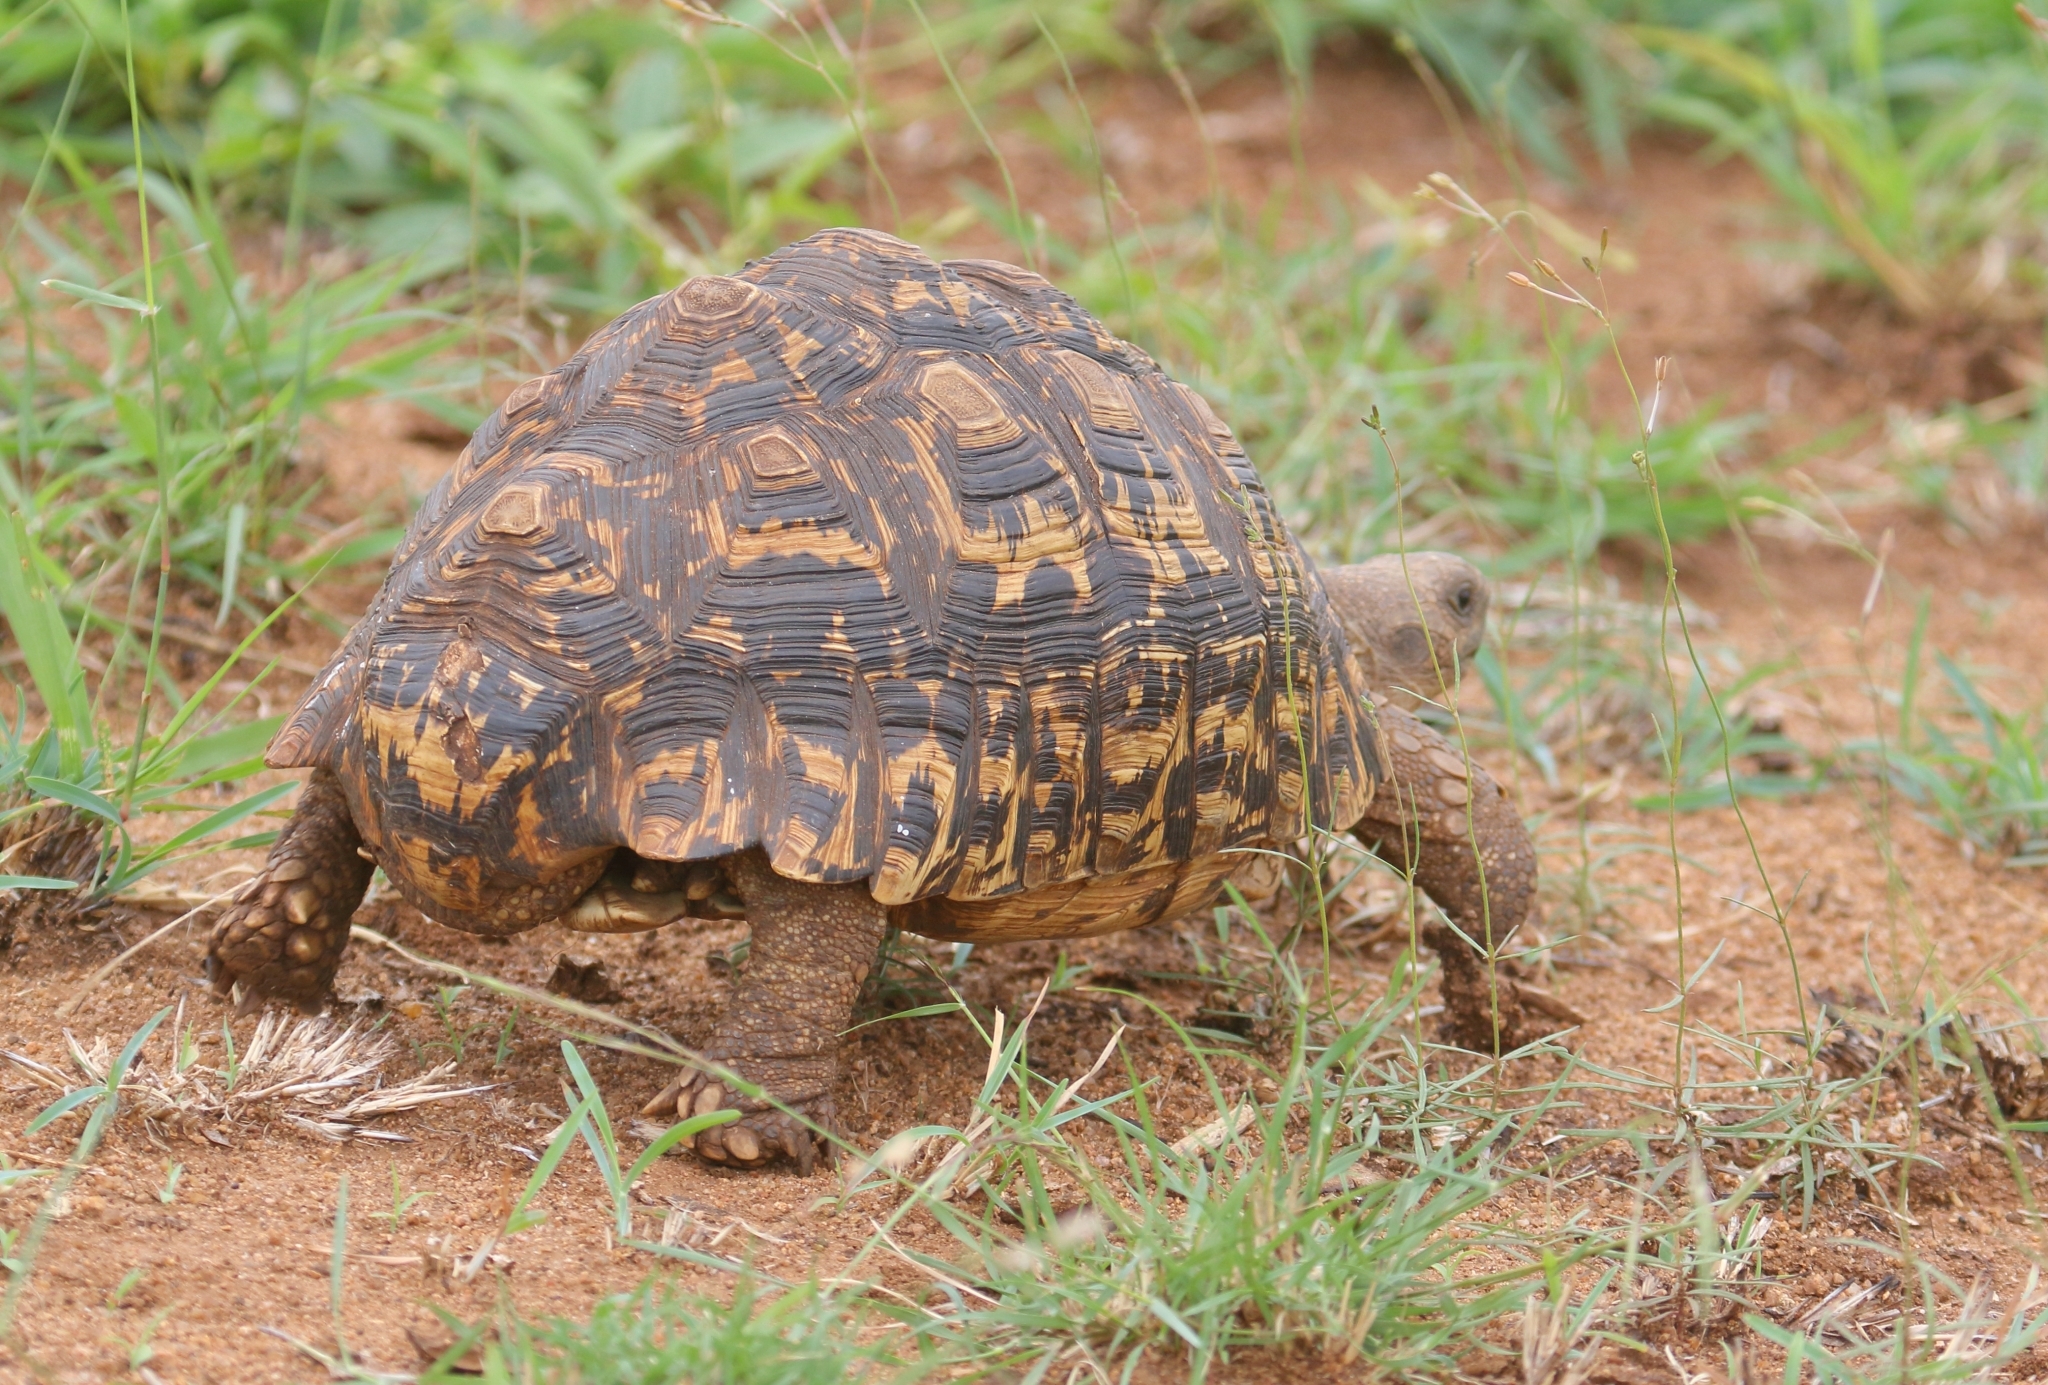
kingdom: Animalia
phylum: Chordata
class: Testudines
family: Testudinidae
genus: Stigmochelys
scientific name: Stigmochelys pardalis
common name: Leopard tortoise
